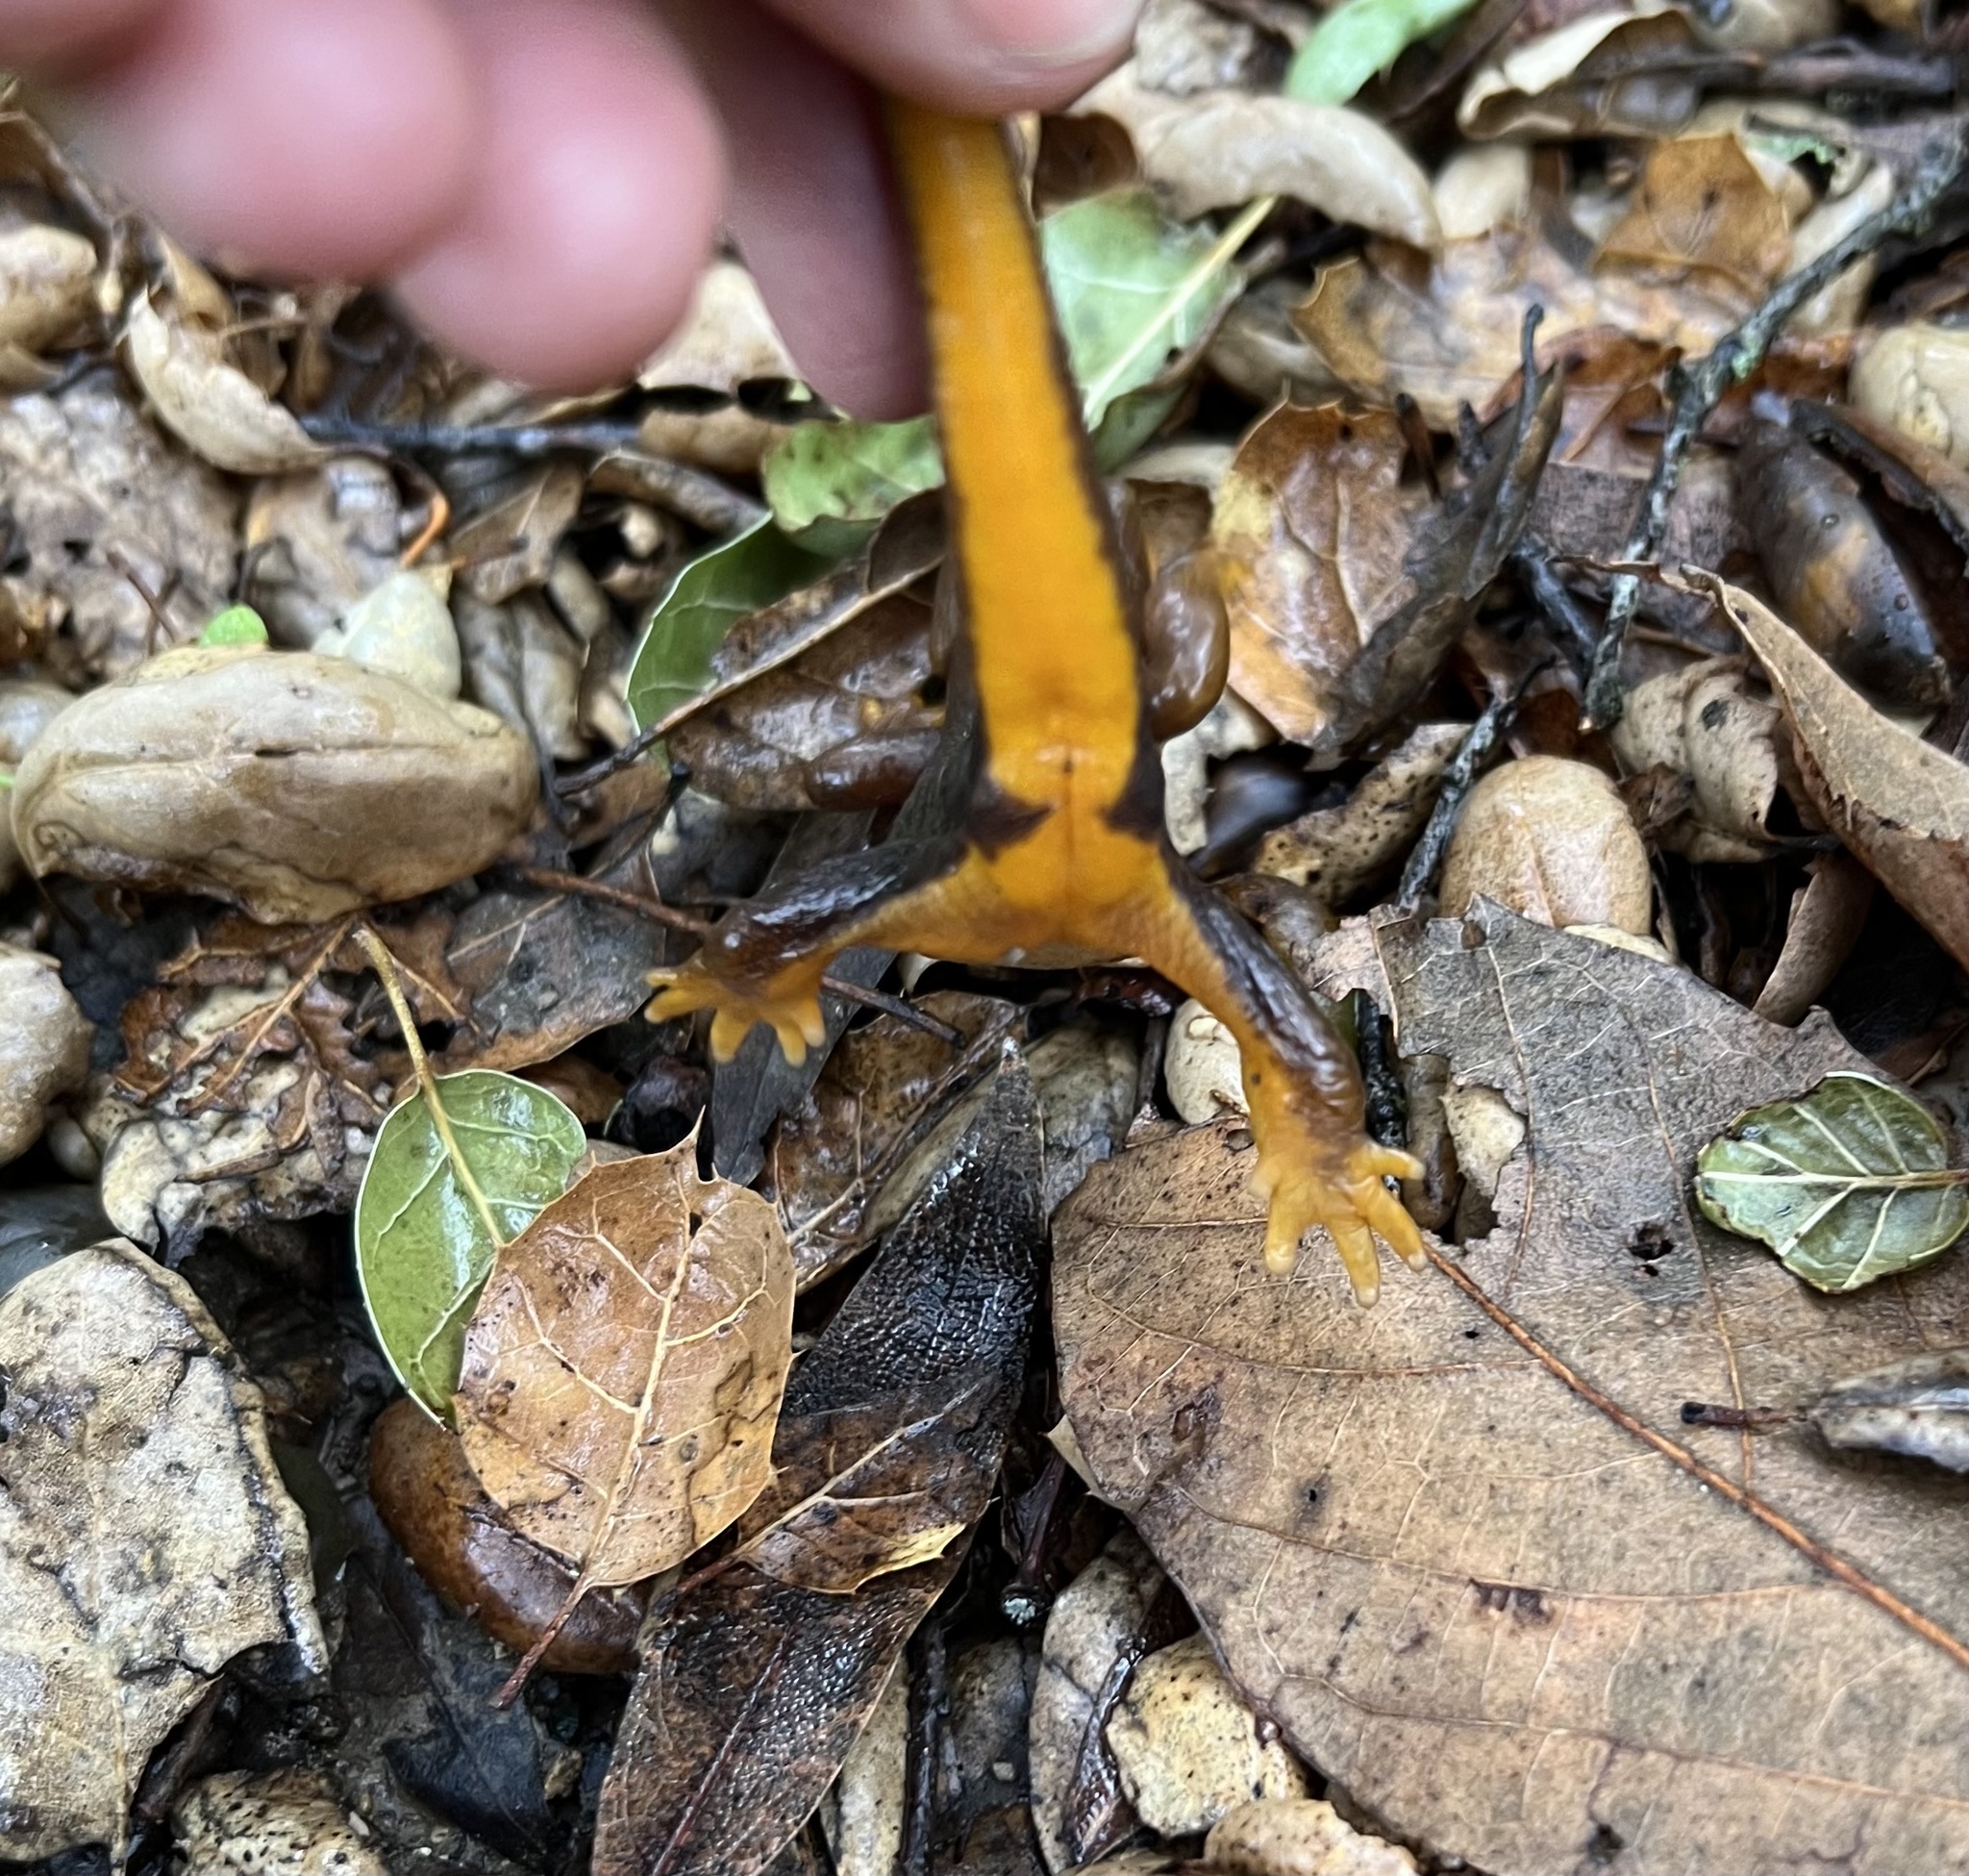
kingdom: Animalia
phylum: Chordata
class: Amphibia
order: Caudata
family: Salamandridae
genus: Taricha
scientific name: Taricha torosa
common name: California newt
